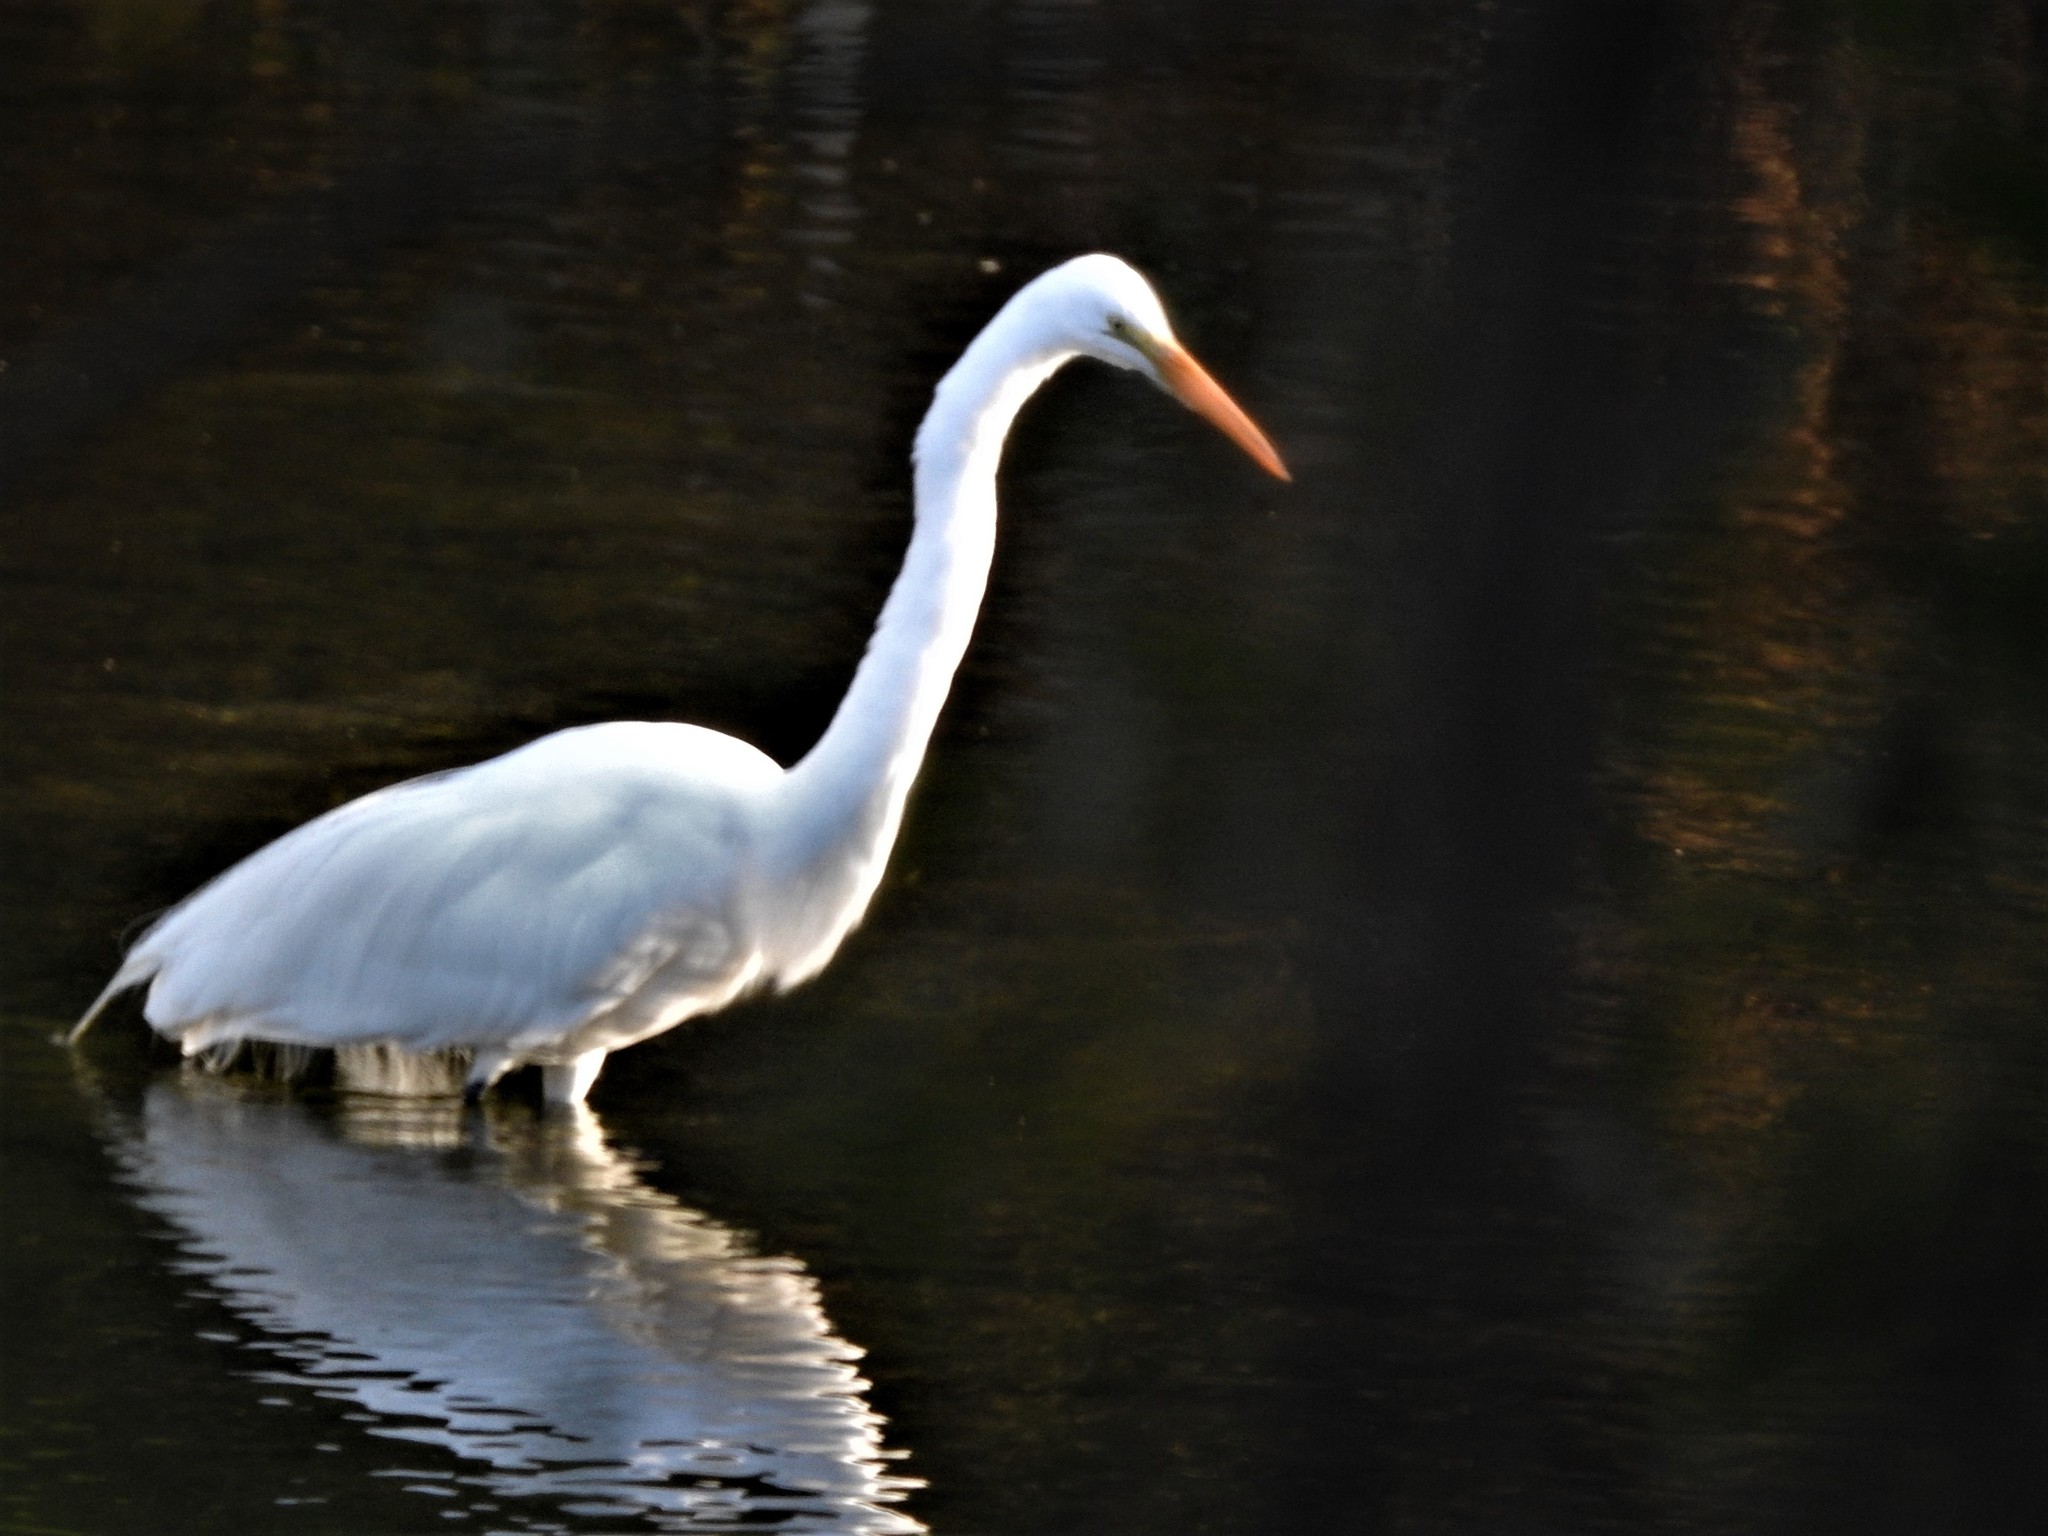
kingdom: Animalia
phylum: Chordata
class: Aves
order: Pelecaniformes
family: Ardeidae
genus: Ardea
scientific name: Ardea alba
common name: Great egret
